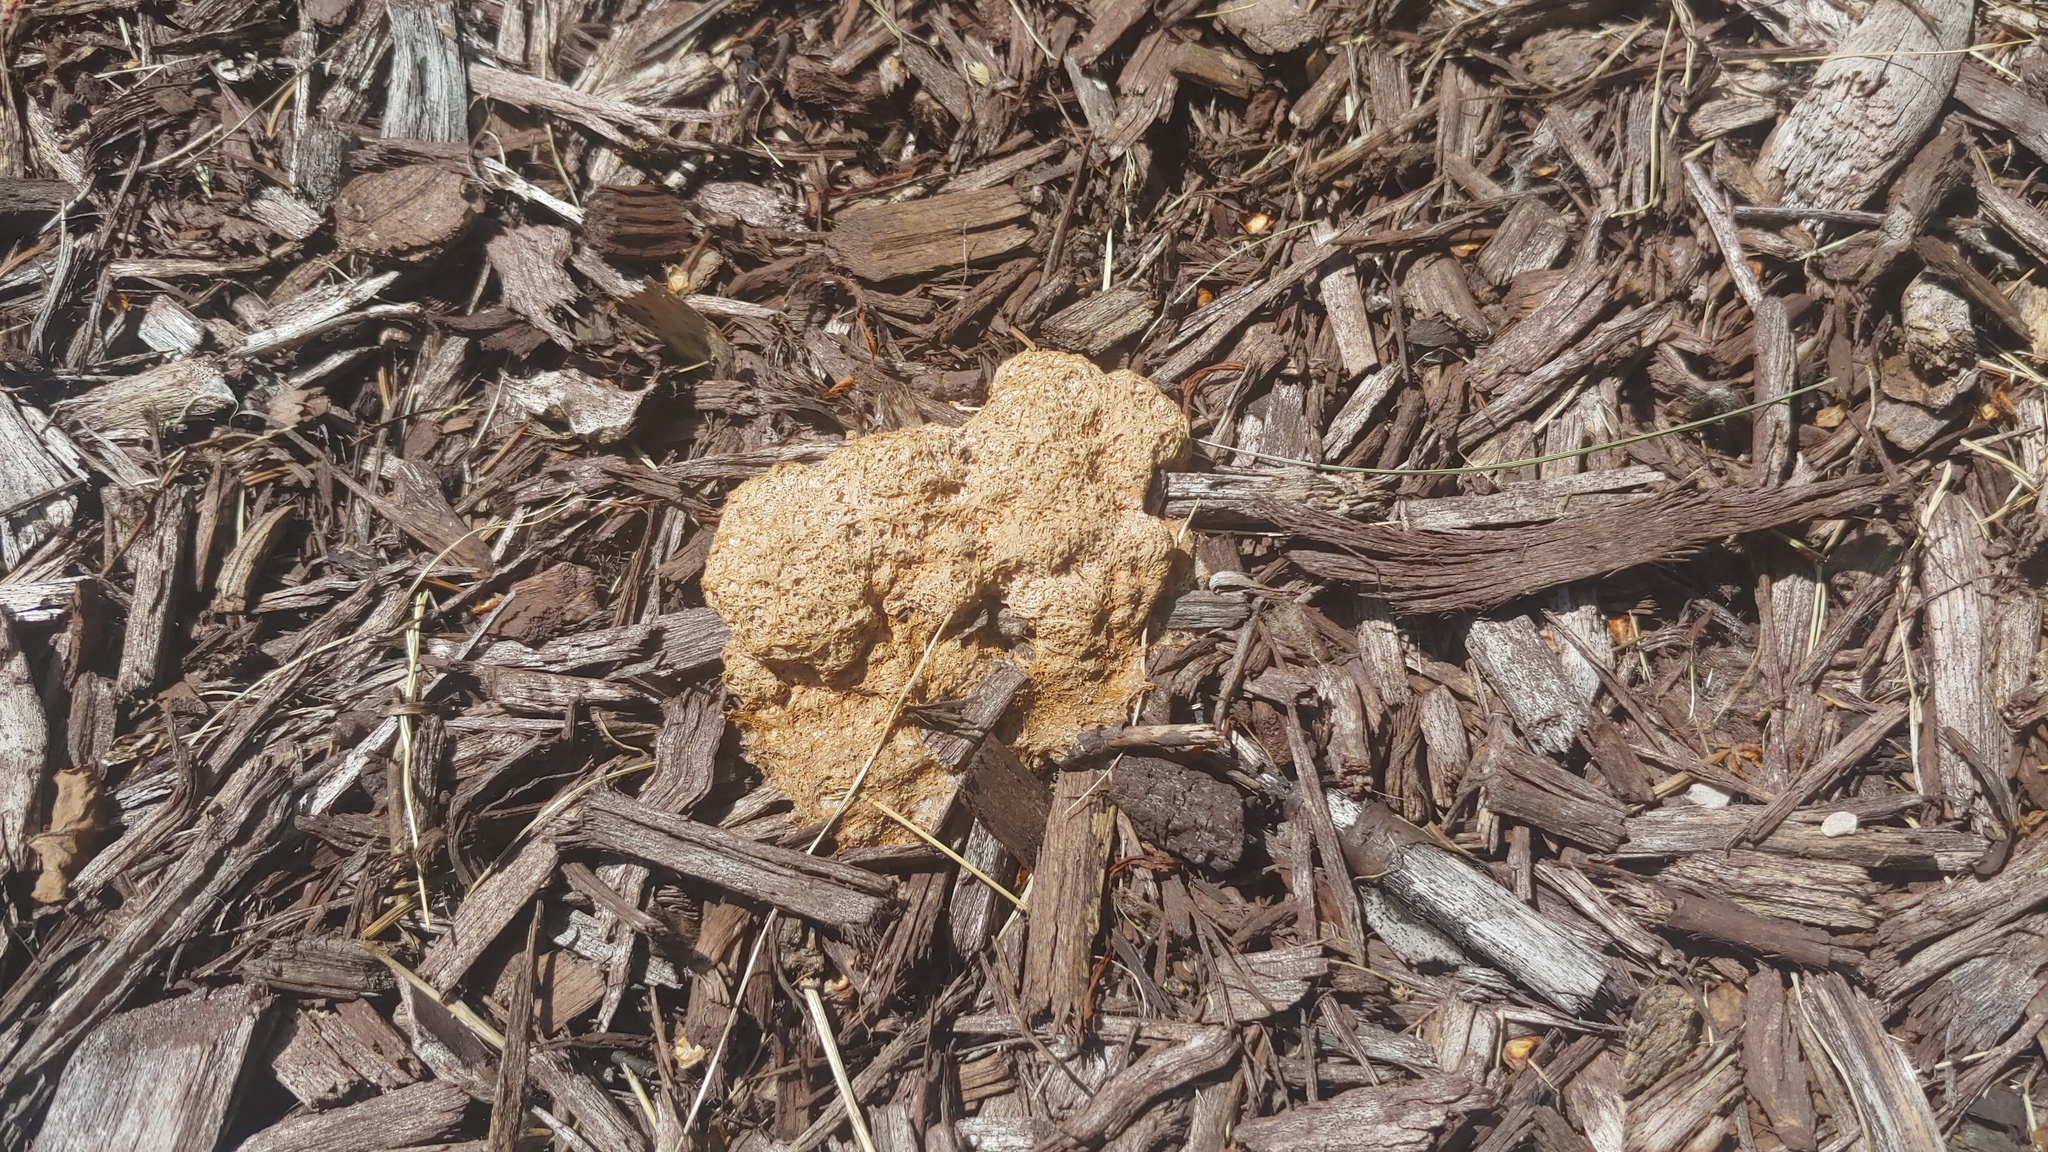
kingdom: Protozoa
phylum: Mycetozoa
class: Myxomycetes
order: Physarales
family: Physaraceae
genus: Fuligo
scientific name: Fuligo septica
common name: Dog vomit slime mold
